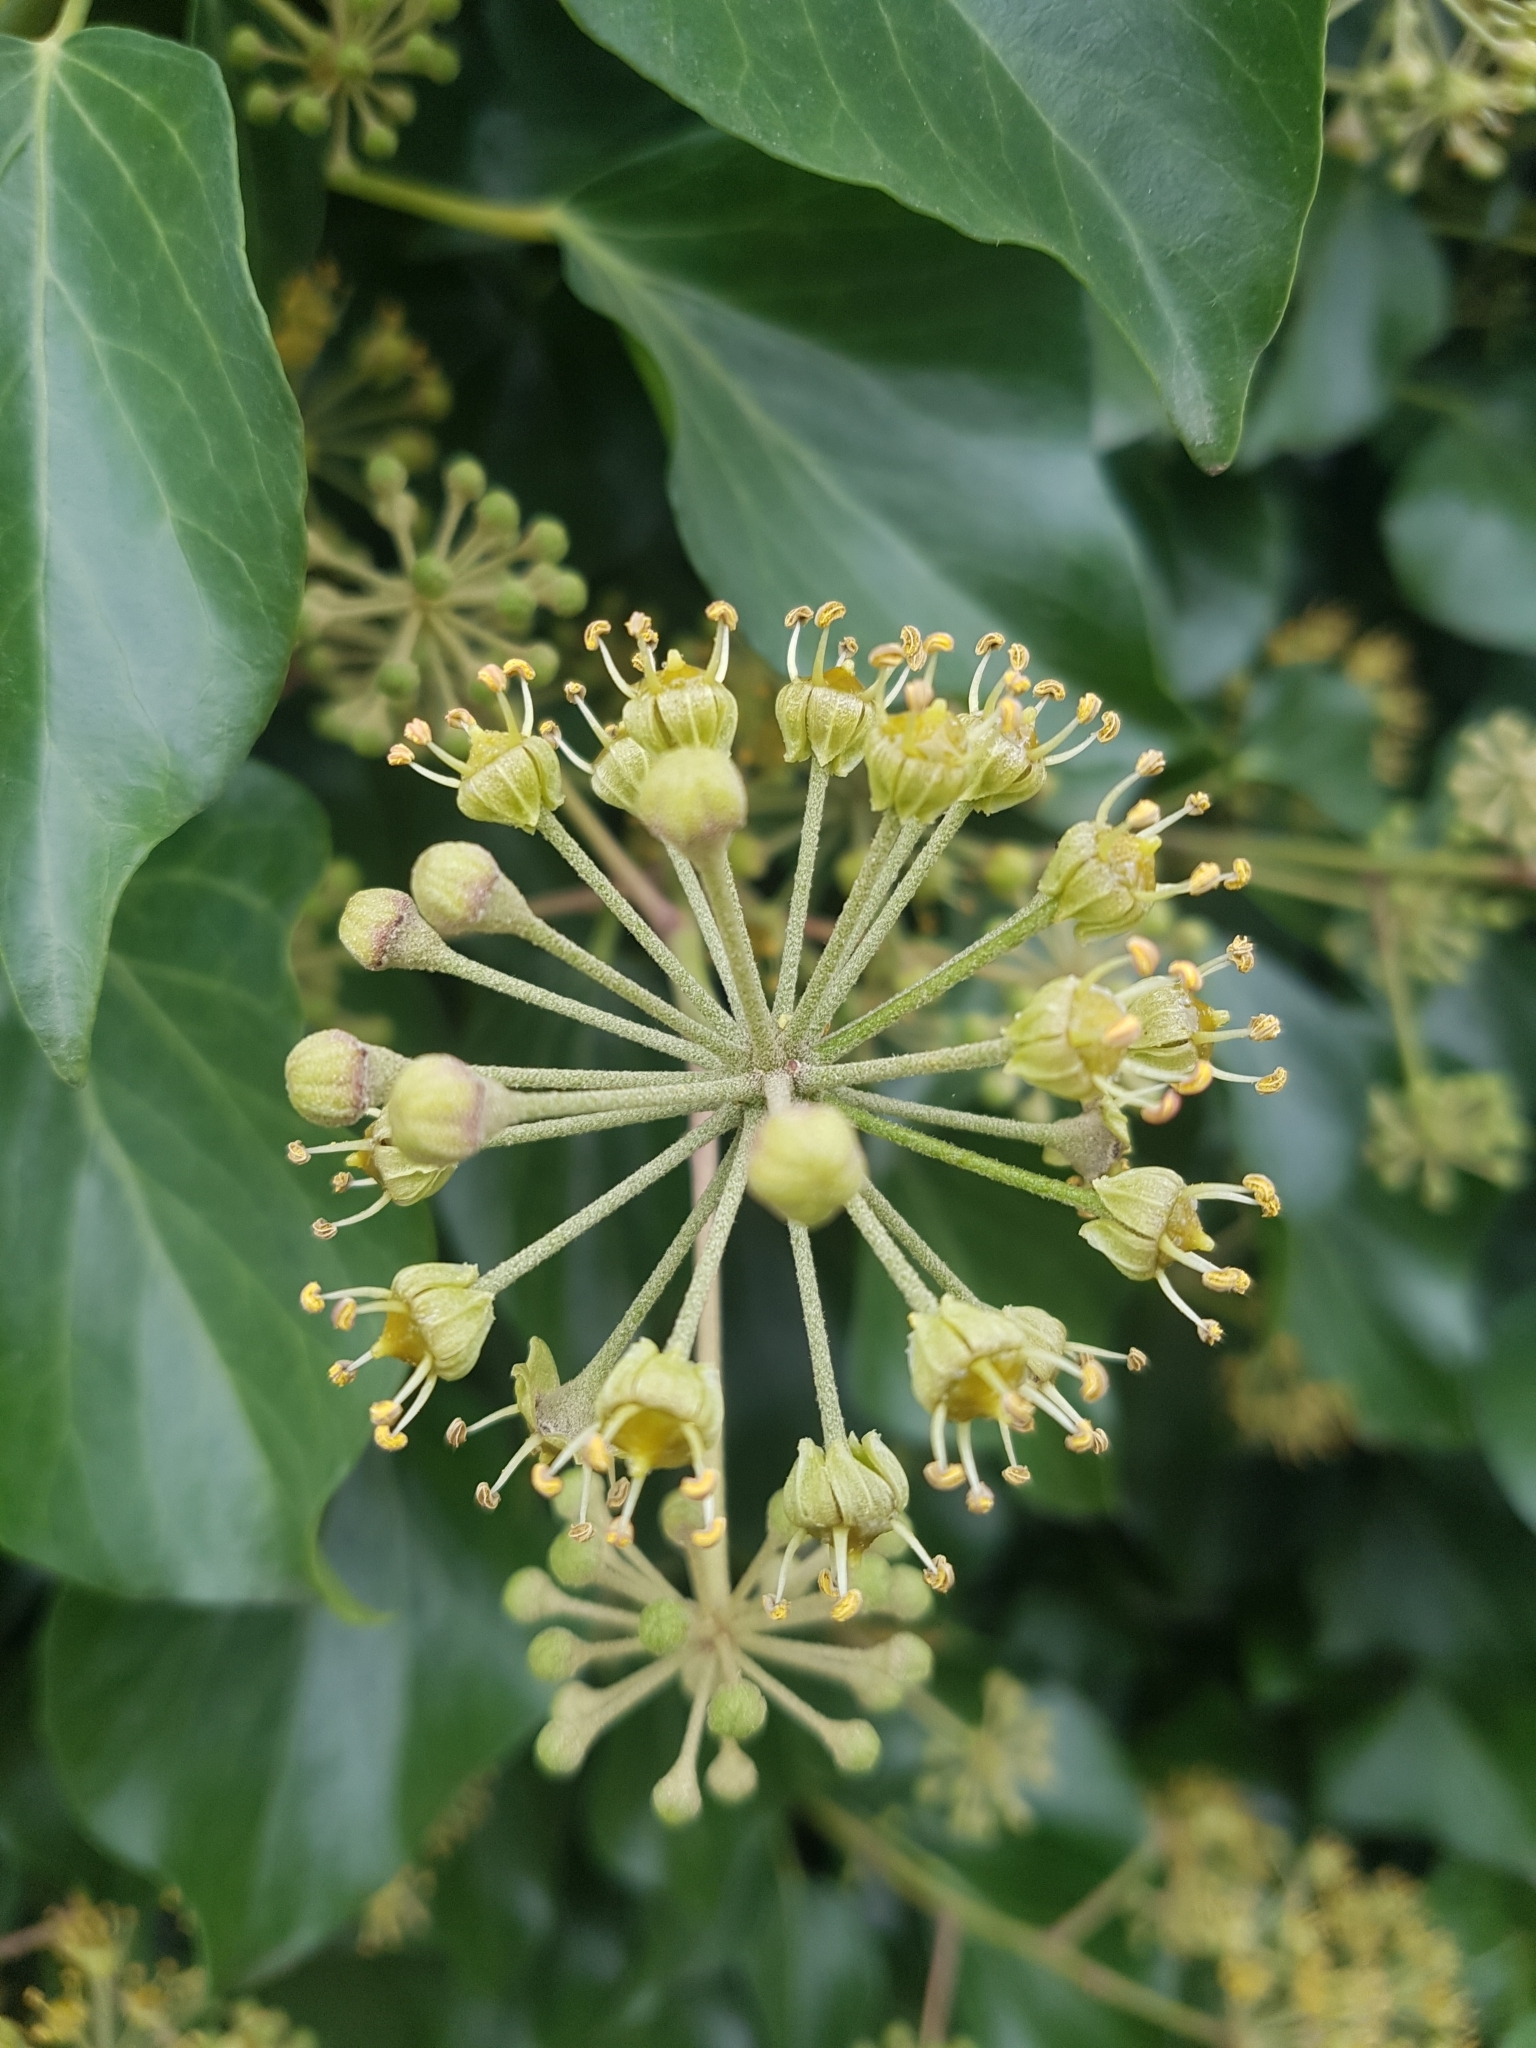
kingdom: Plantae
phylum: Tracheophyta
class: Magnoliopsida
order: Apiales
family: Araliaceae
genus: Hedera
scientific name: Hedera helix
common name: Ivy
